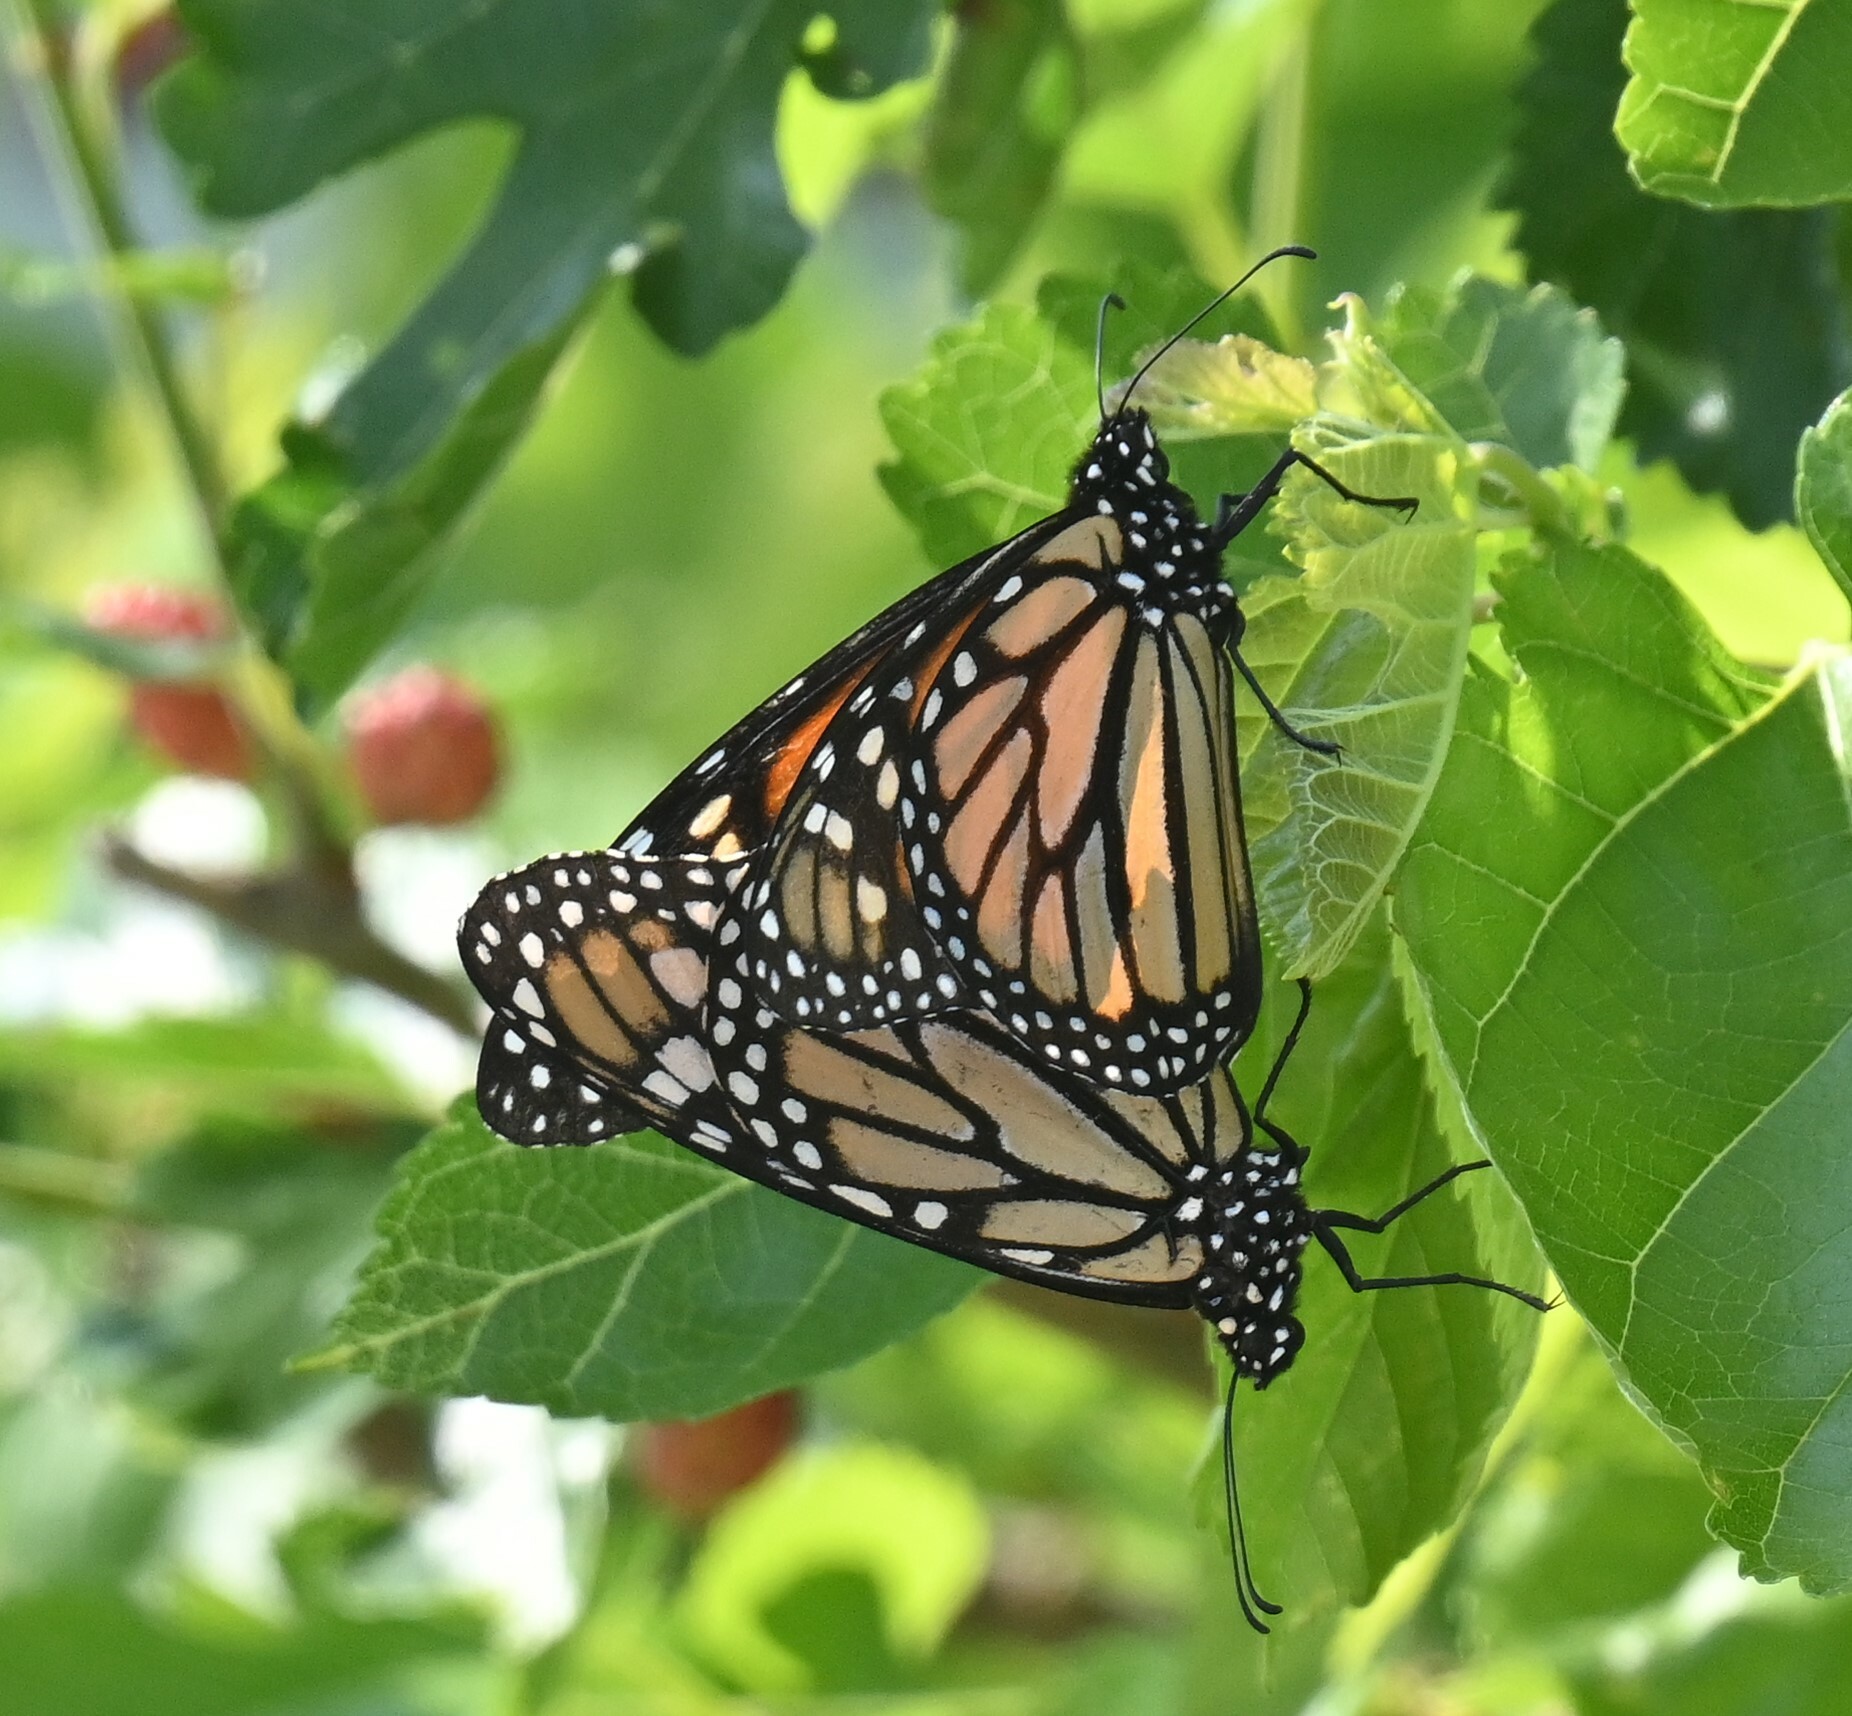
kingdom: Animalia
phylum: Arthropoda
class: Insecta
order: Lepidoptera
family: Nymphalidae
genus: Danaus
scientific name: Danaus plexippus
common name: Monarch
